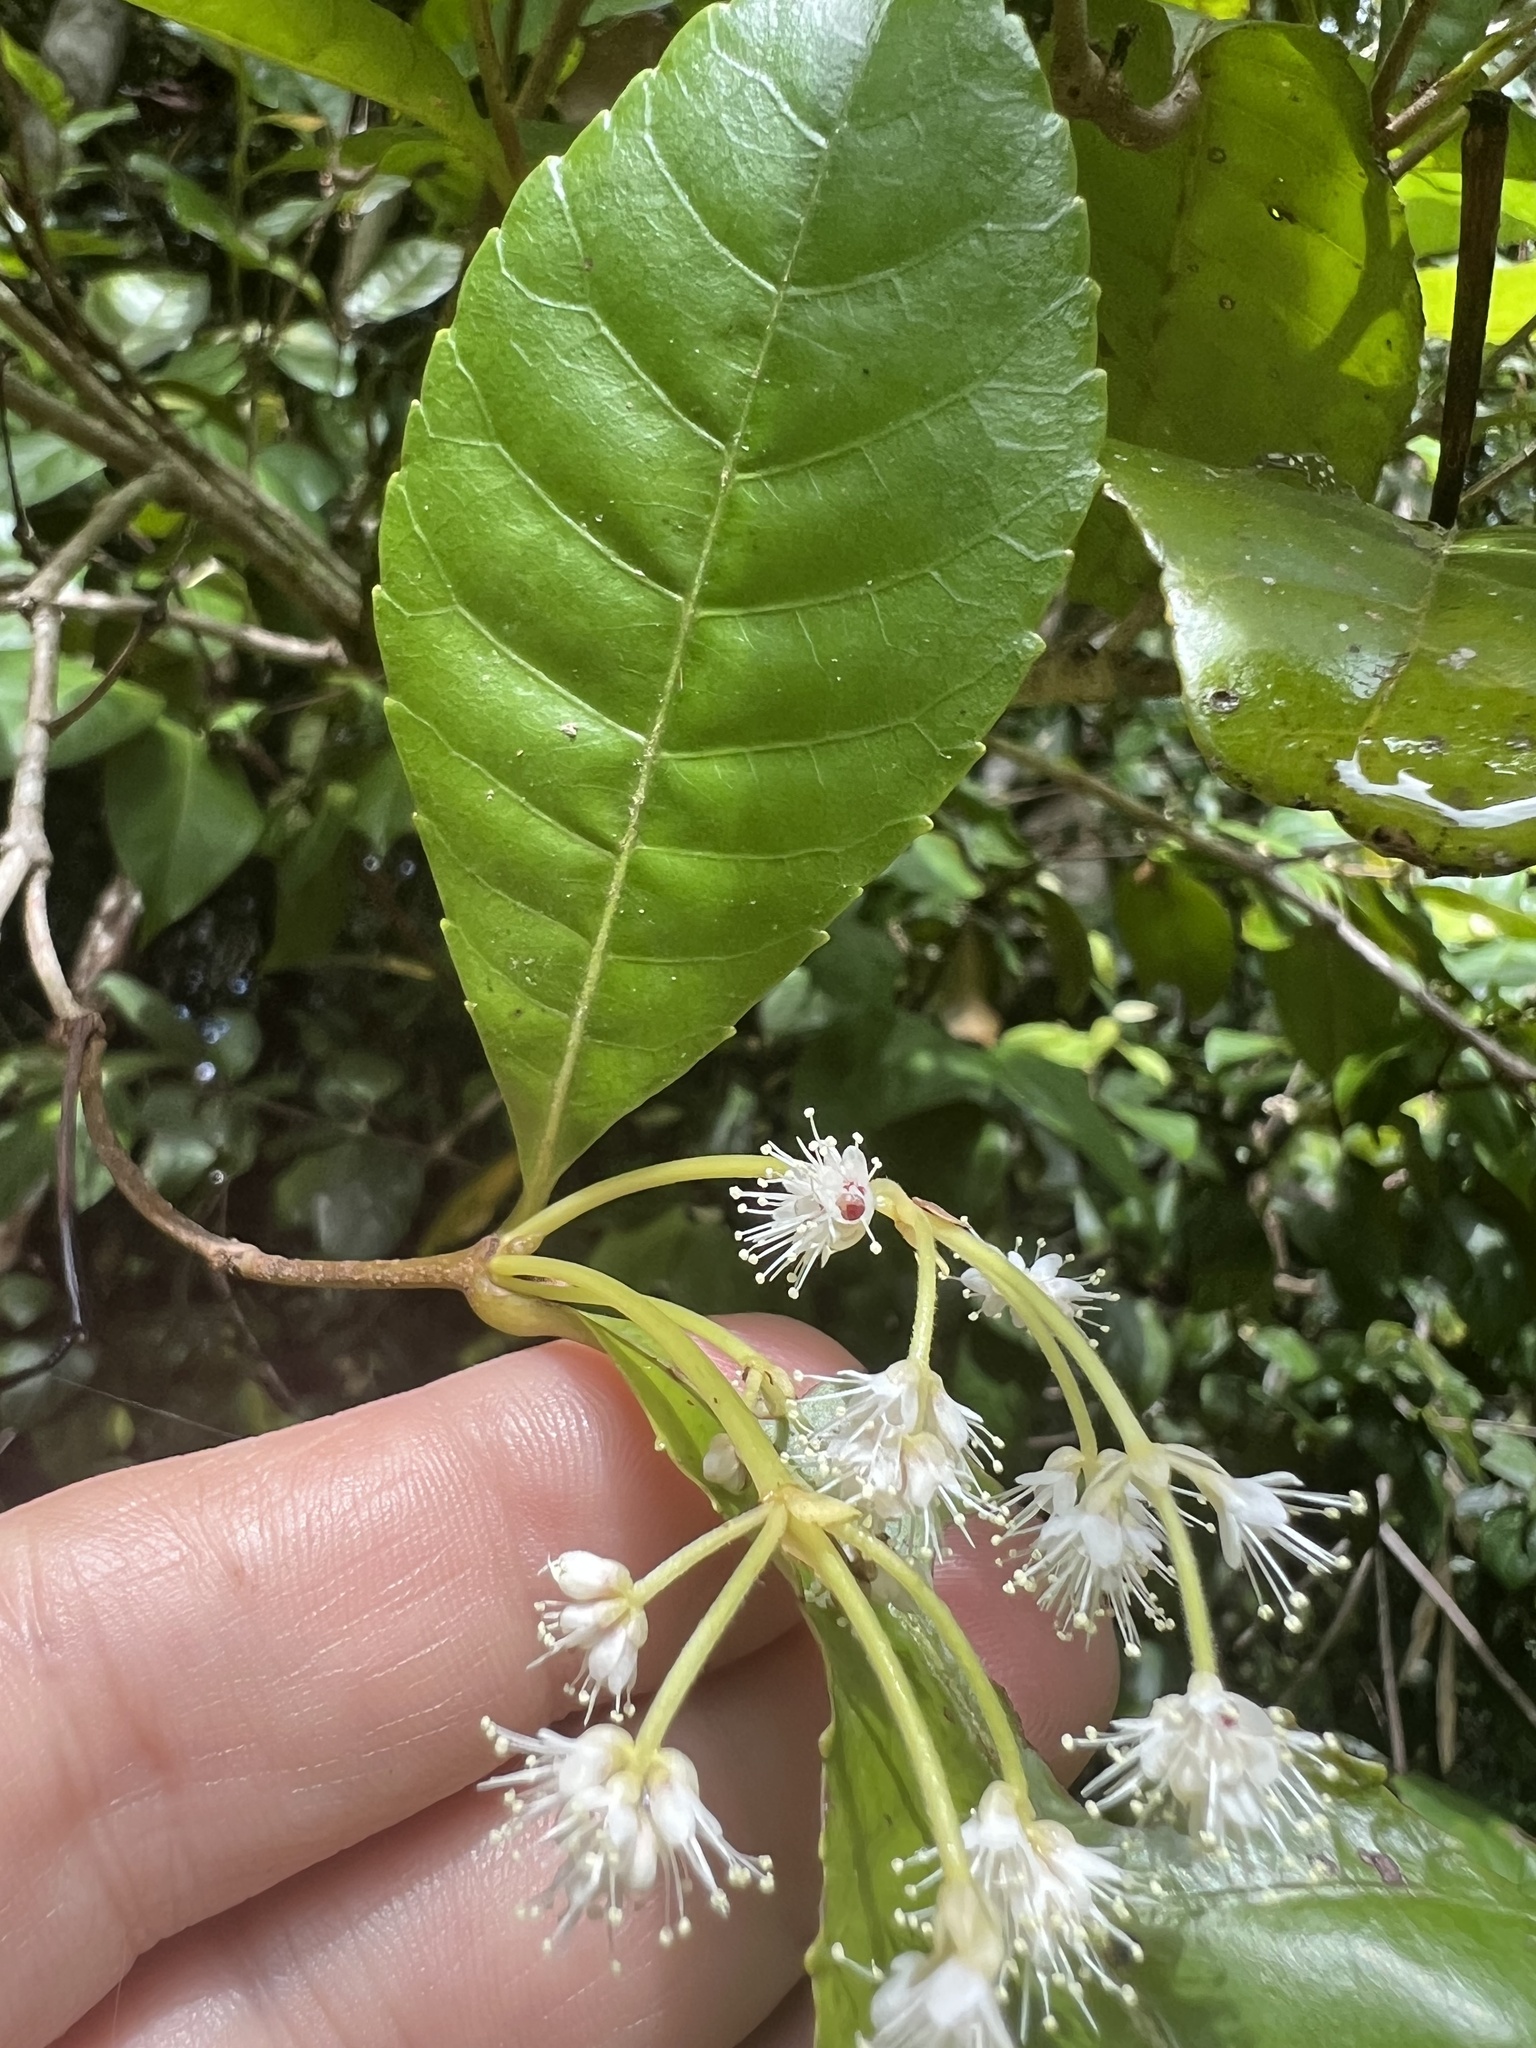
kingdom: Plantae
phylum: Tracheophyta
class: Magnoliopsida
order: Oxalidales
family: Cunoniaceae
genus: Pullea
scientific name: Pullea stutzeri
